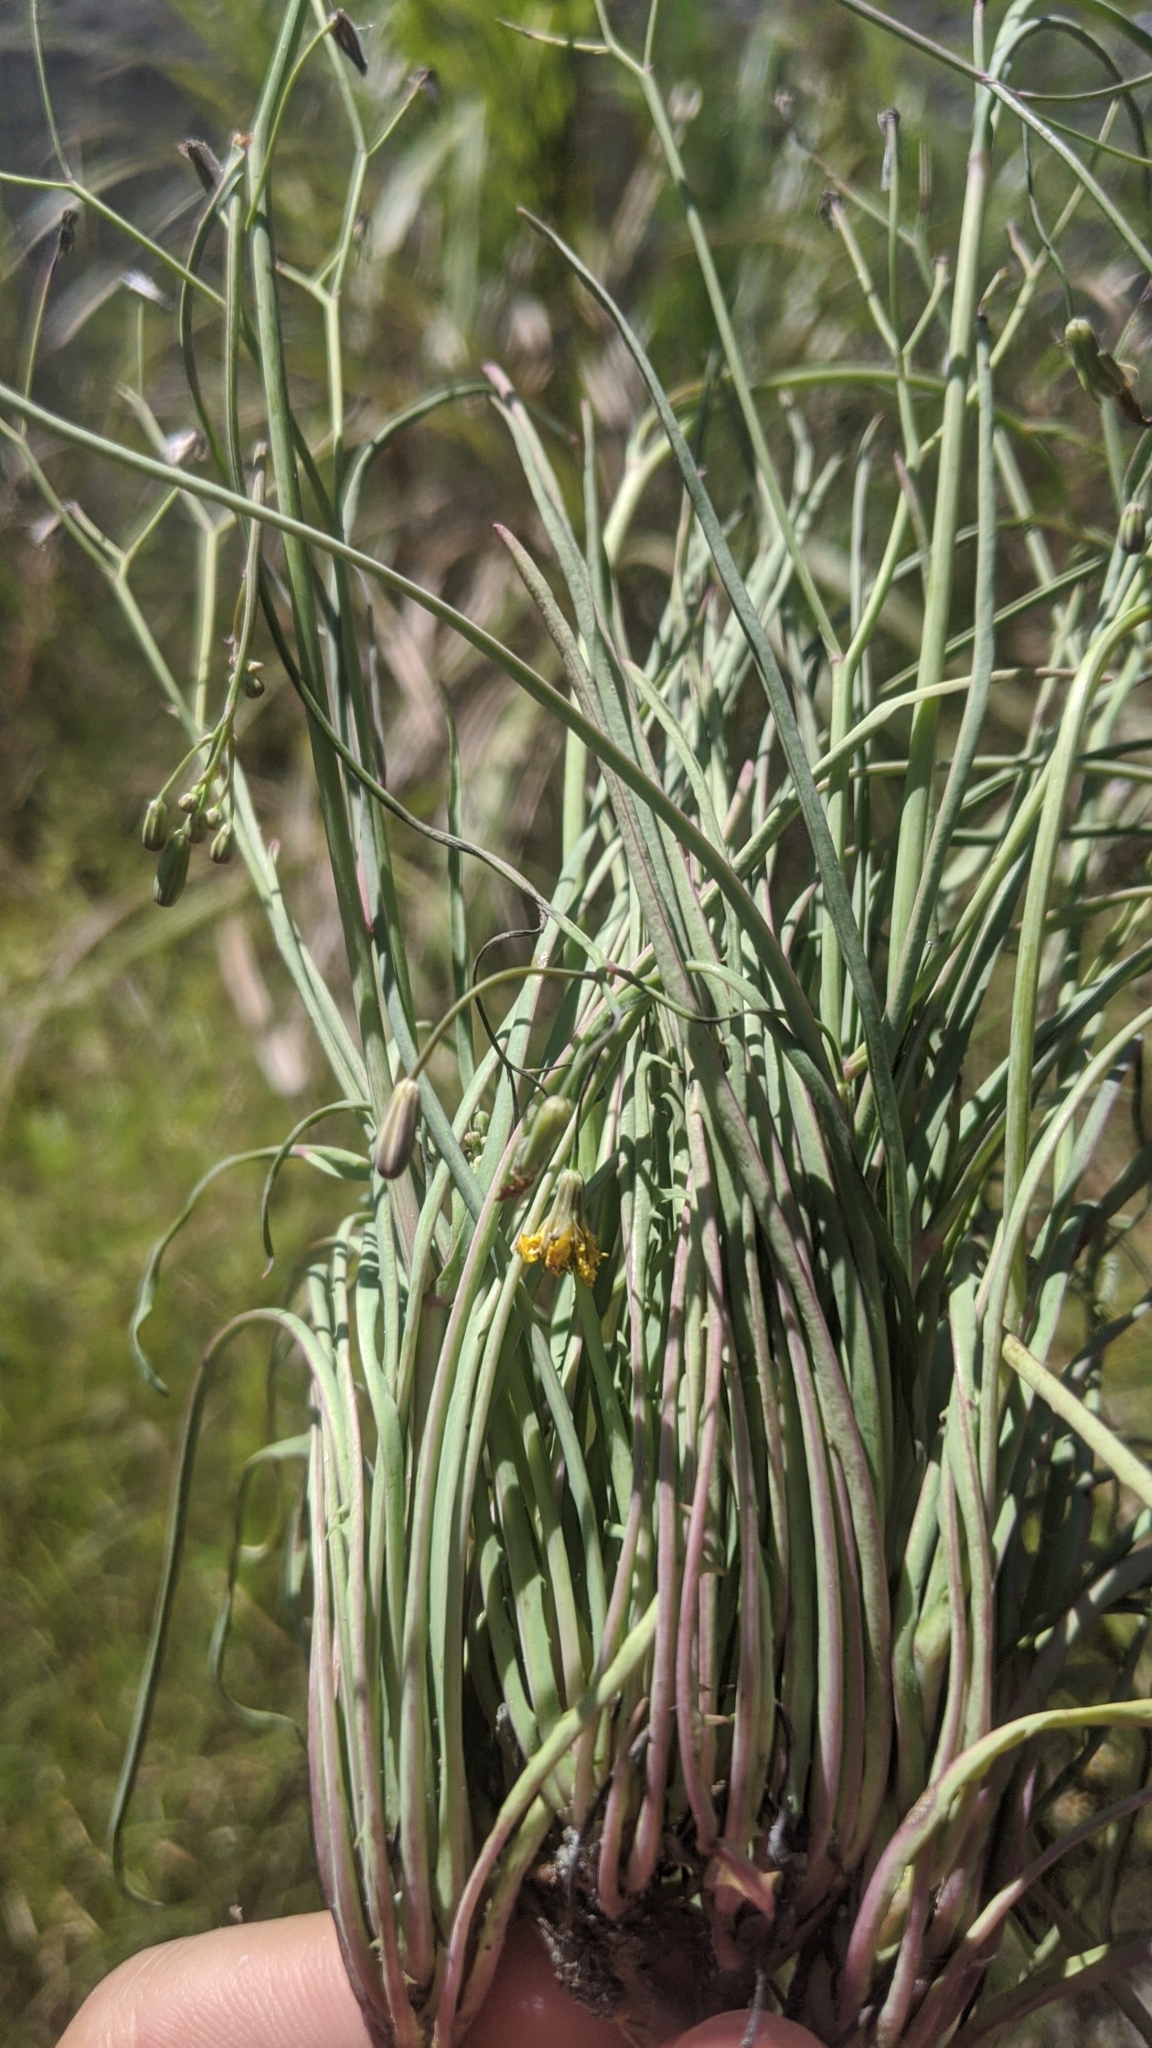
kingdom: Plantae
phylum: Tracheophyta
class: Magnoliopsida
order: Asterales
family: Asteraceae
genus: Ixeris
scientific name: Ixeris tamagawaensis
